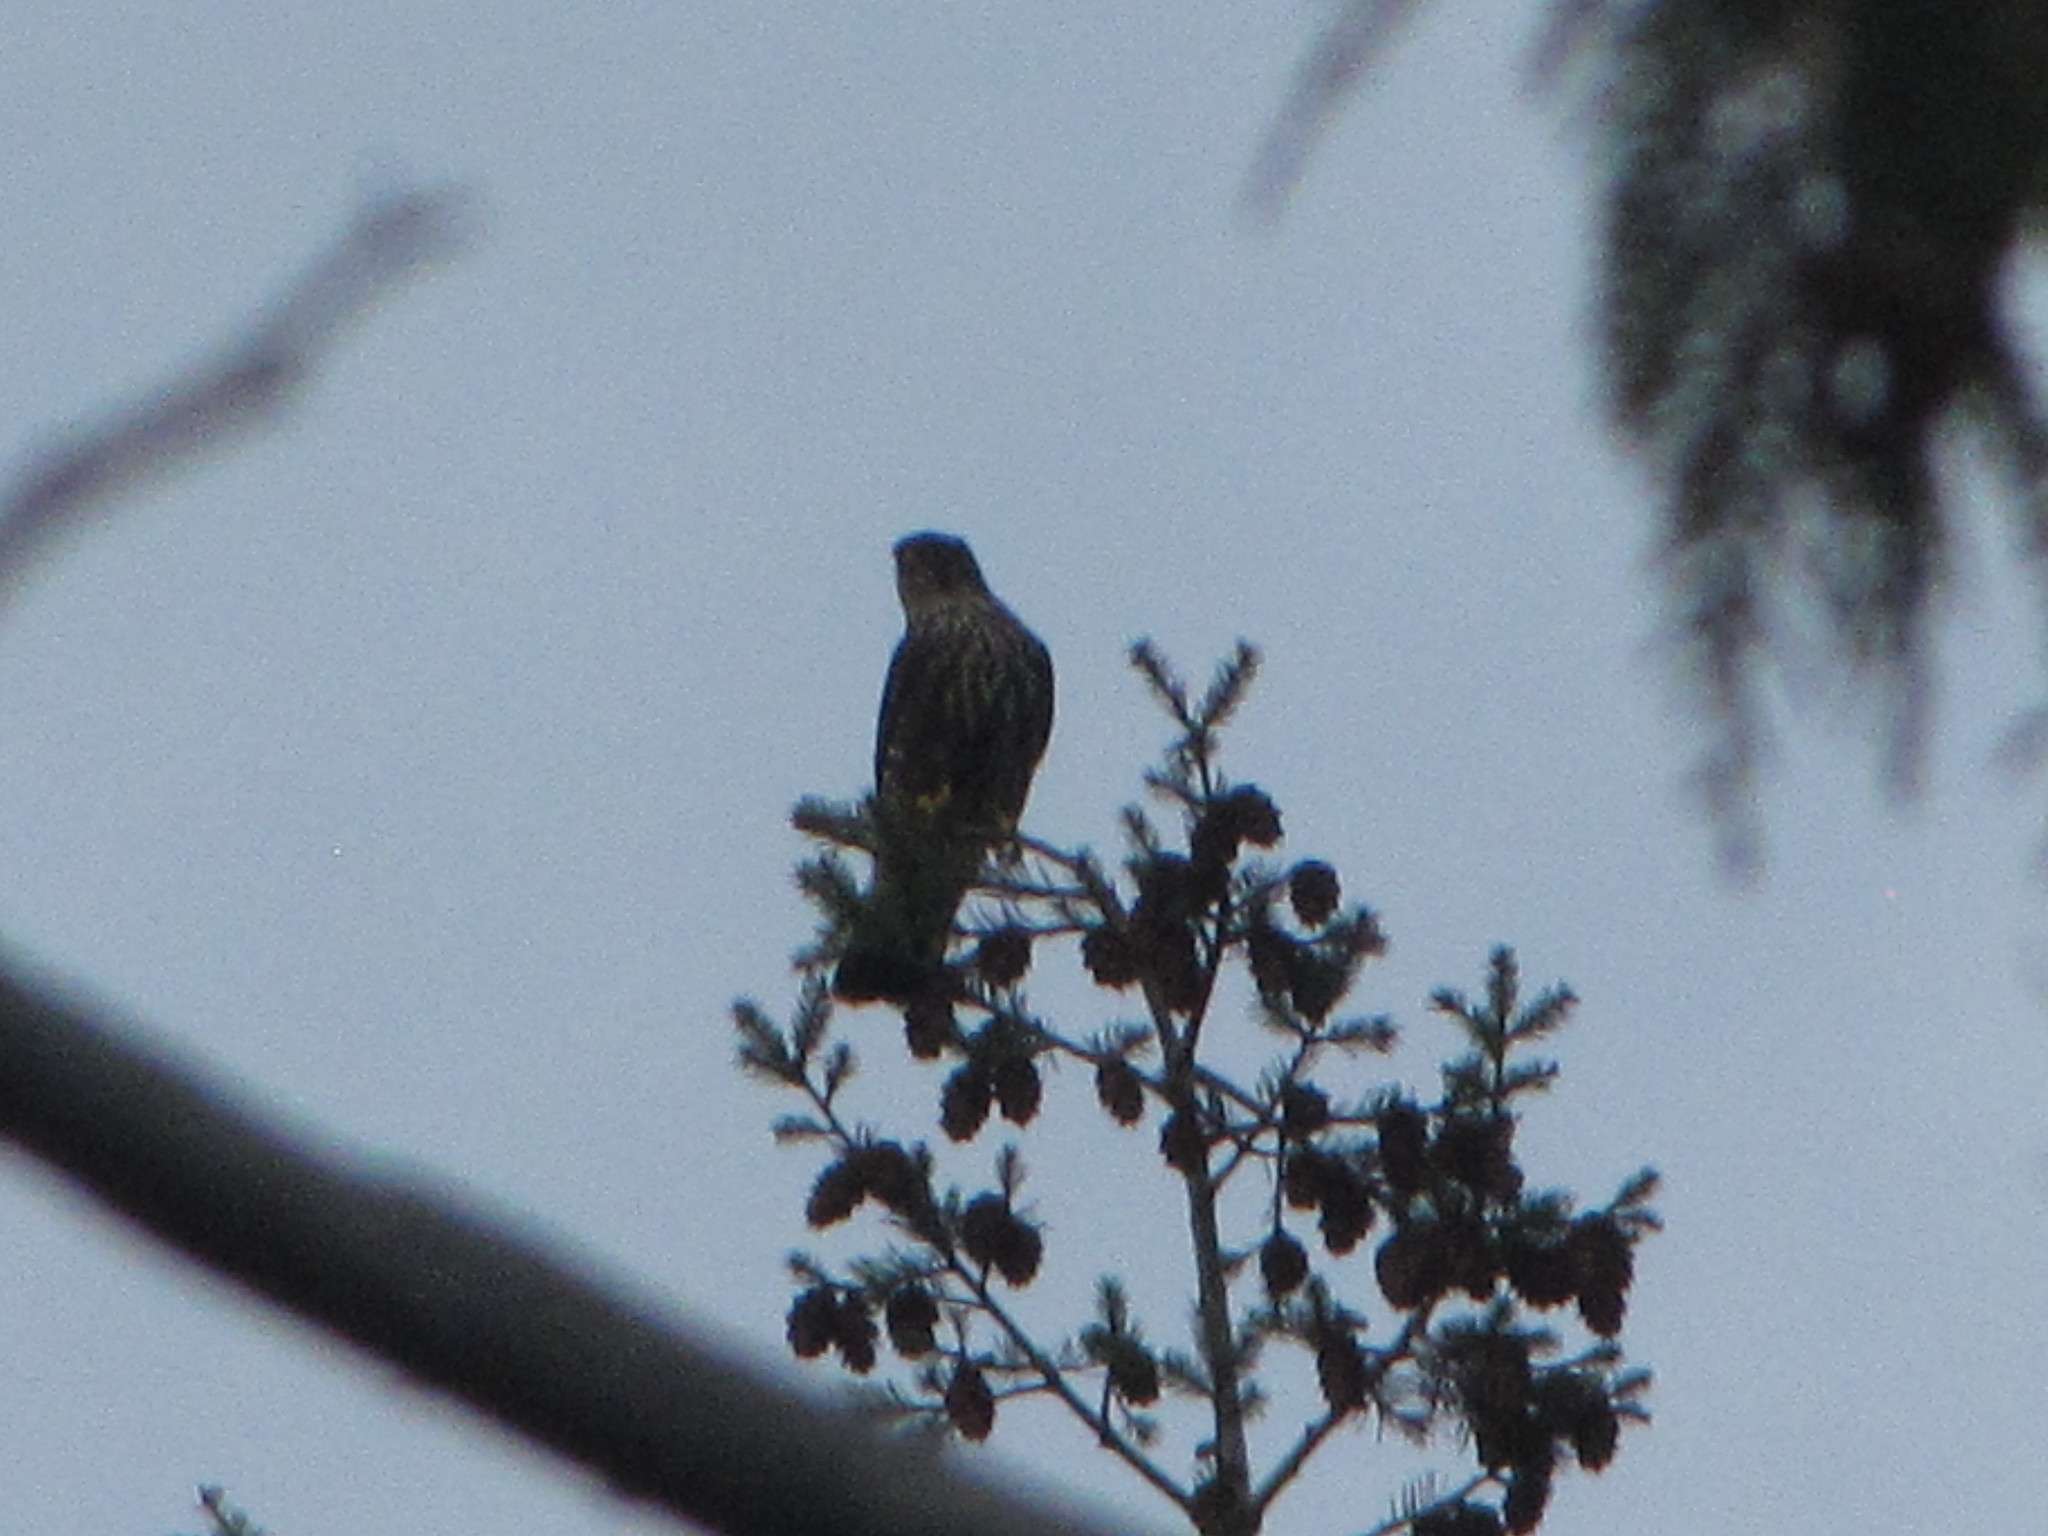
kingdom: Animalia
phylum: Chordata
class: Aves
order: Falconiformes
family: Falconidae
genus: Falco
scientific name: Falco columbarius
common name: Merlin
